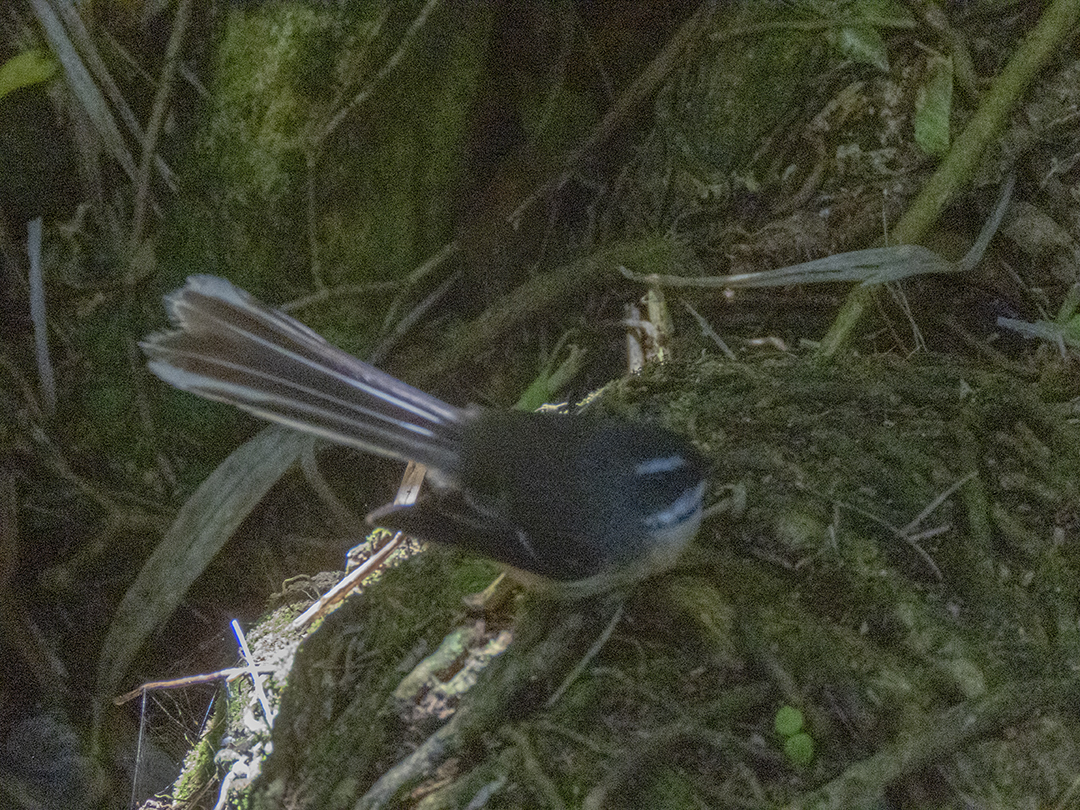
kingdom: Animalia
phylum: Chordata
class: Aves
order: Passeriformes
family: Rhipiduridae
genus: Rhipidura
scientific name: Rhipidura fuliginosa
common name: New zealand fantail
